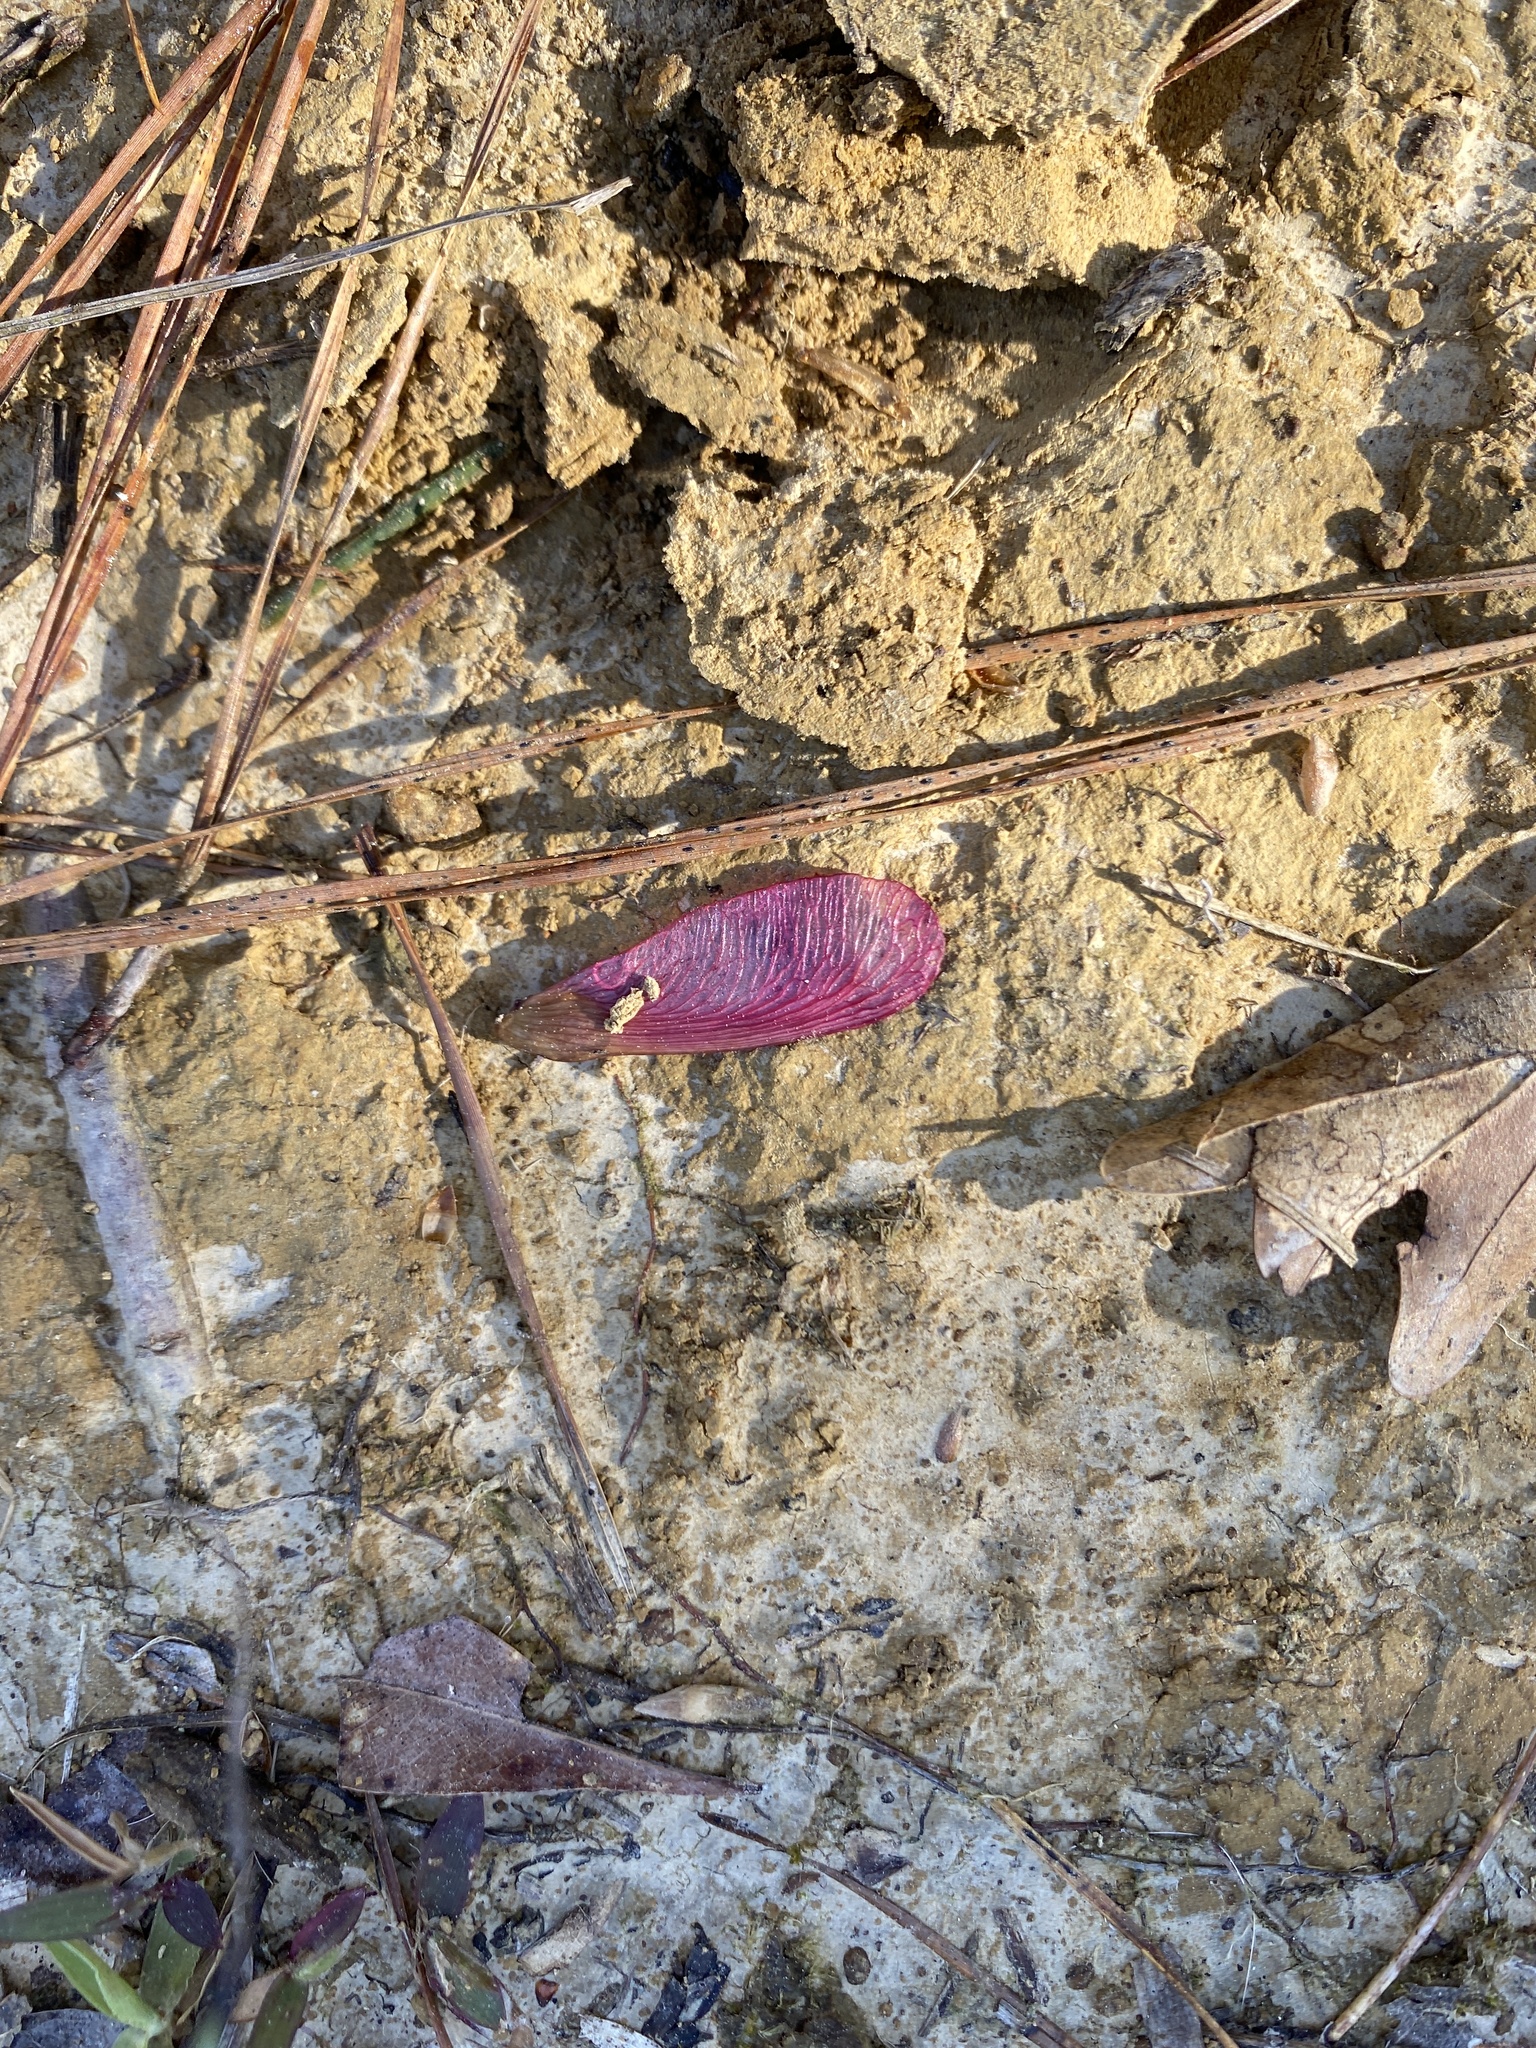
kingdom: Plantae
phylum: Tracheophyta
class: Magnoliopsida
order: Sapindales
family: Sapindaceae
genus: Acer
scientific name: Acer rubrum
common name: Red maple
